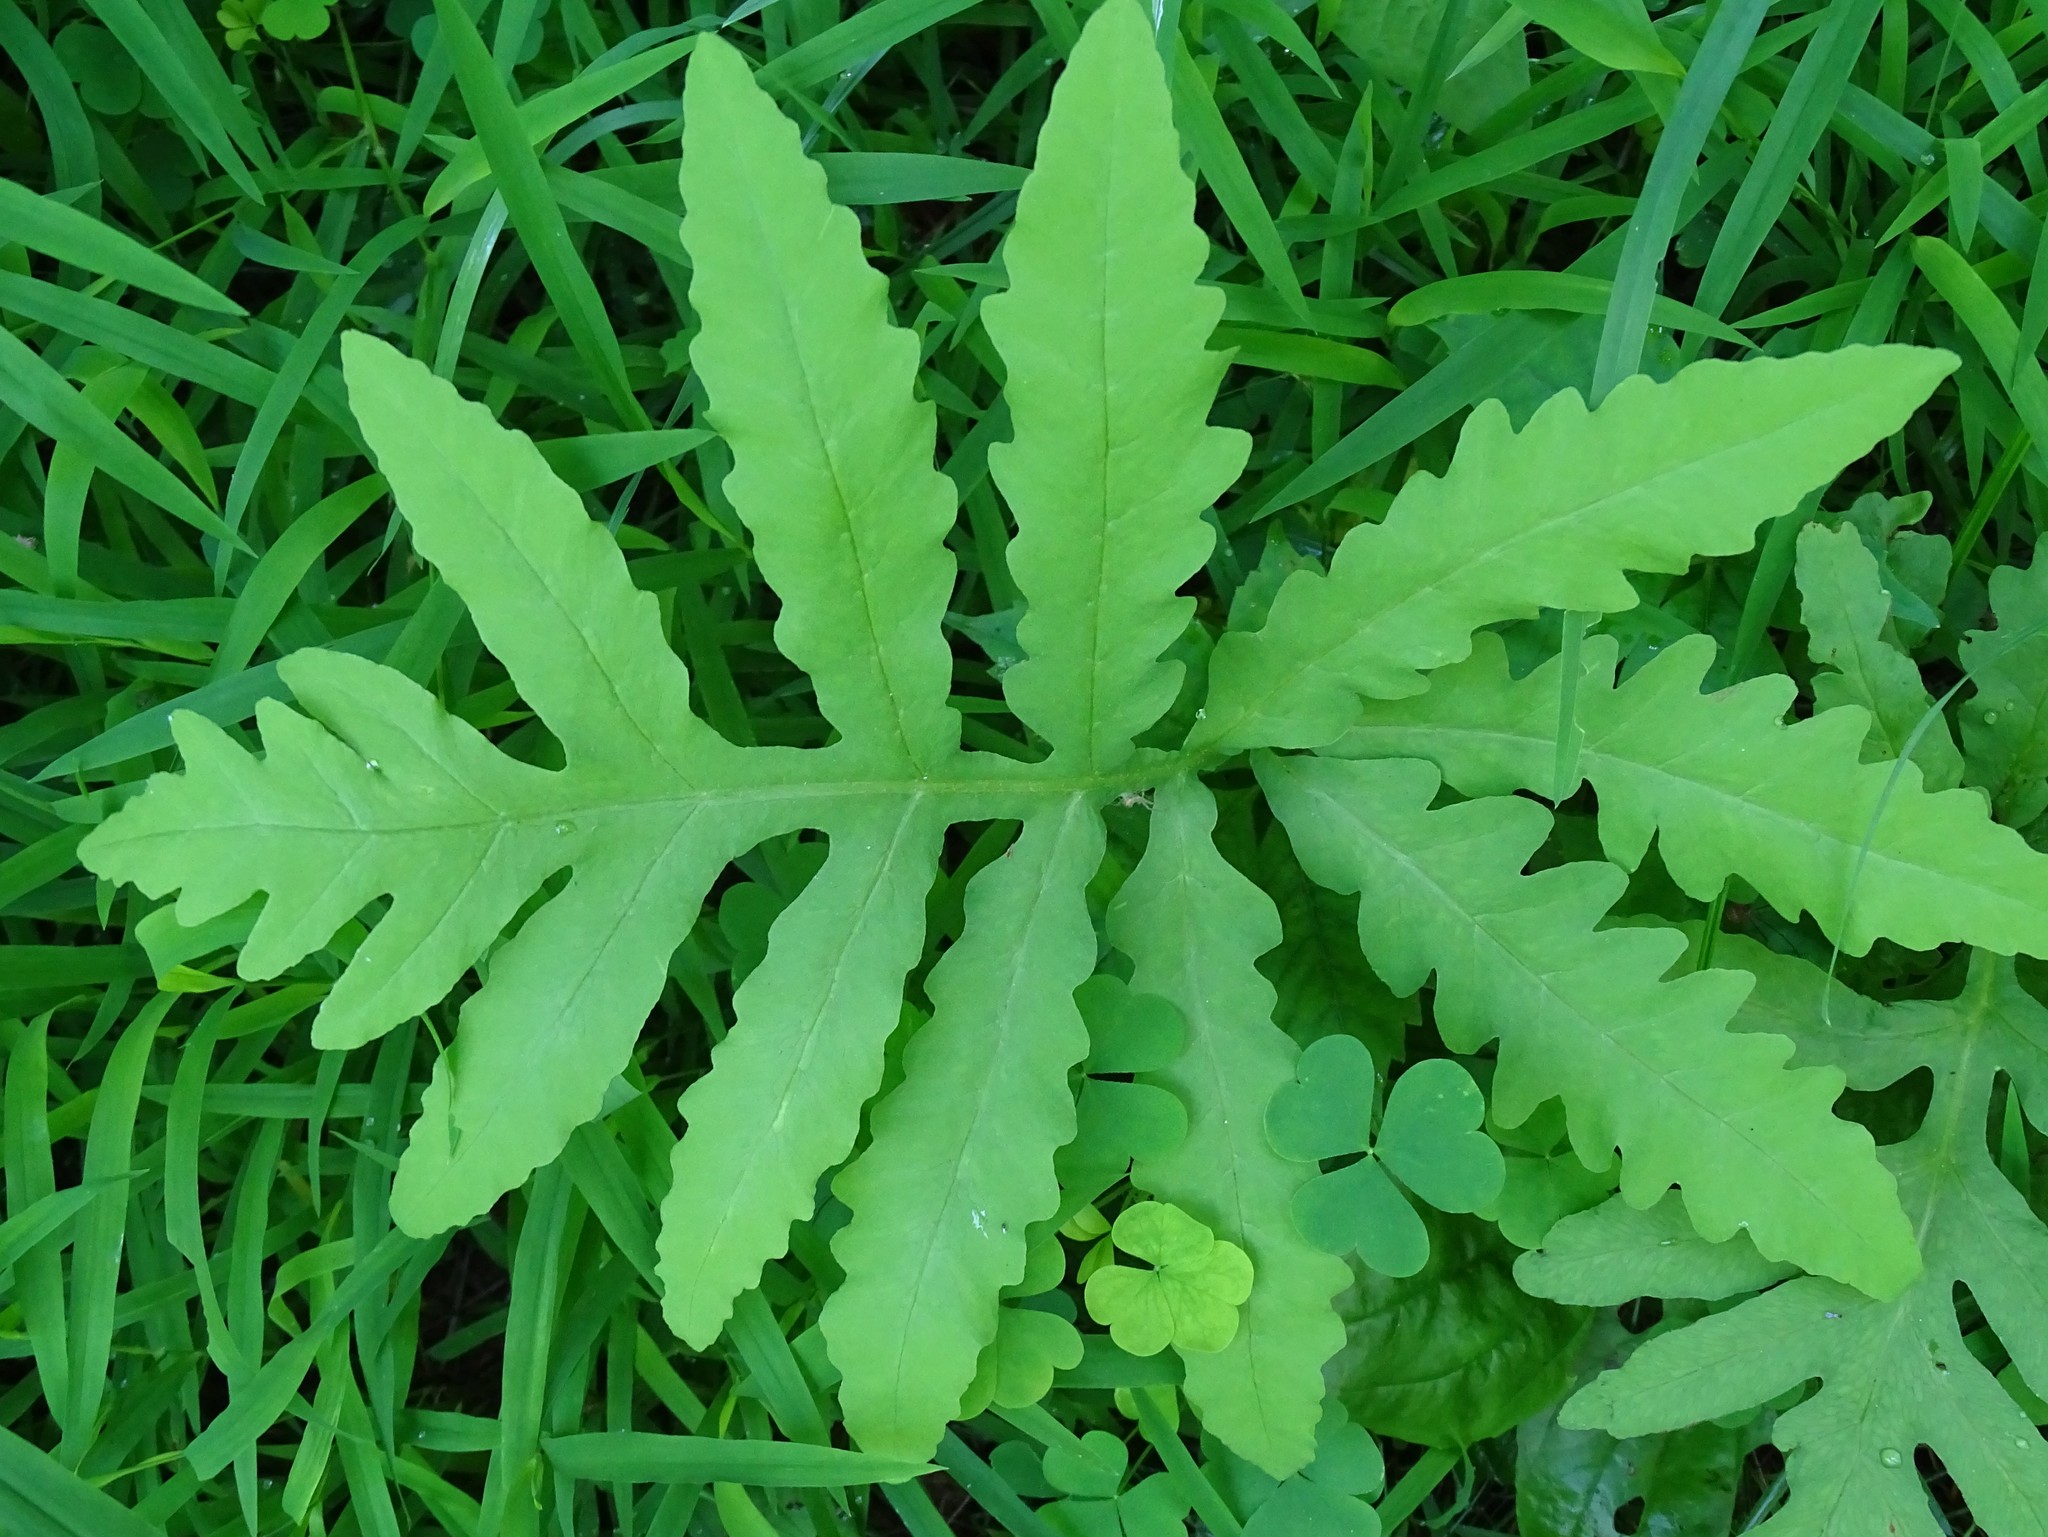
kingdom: Plantae
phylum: Tracheophyta
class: Polypodiopsida
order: Polypodiales
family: Onocleaceae
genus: Onoclea
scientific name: Onoclea sensibilis
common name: Sensitive fern
